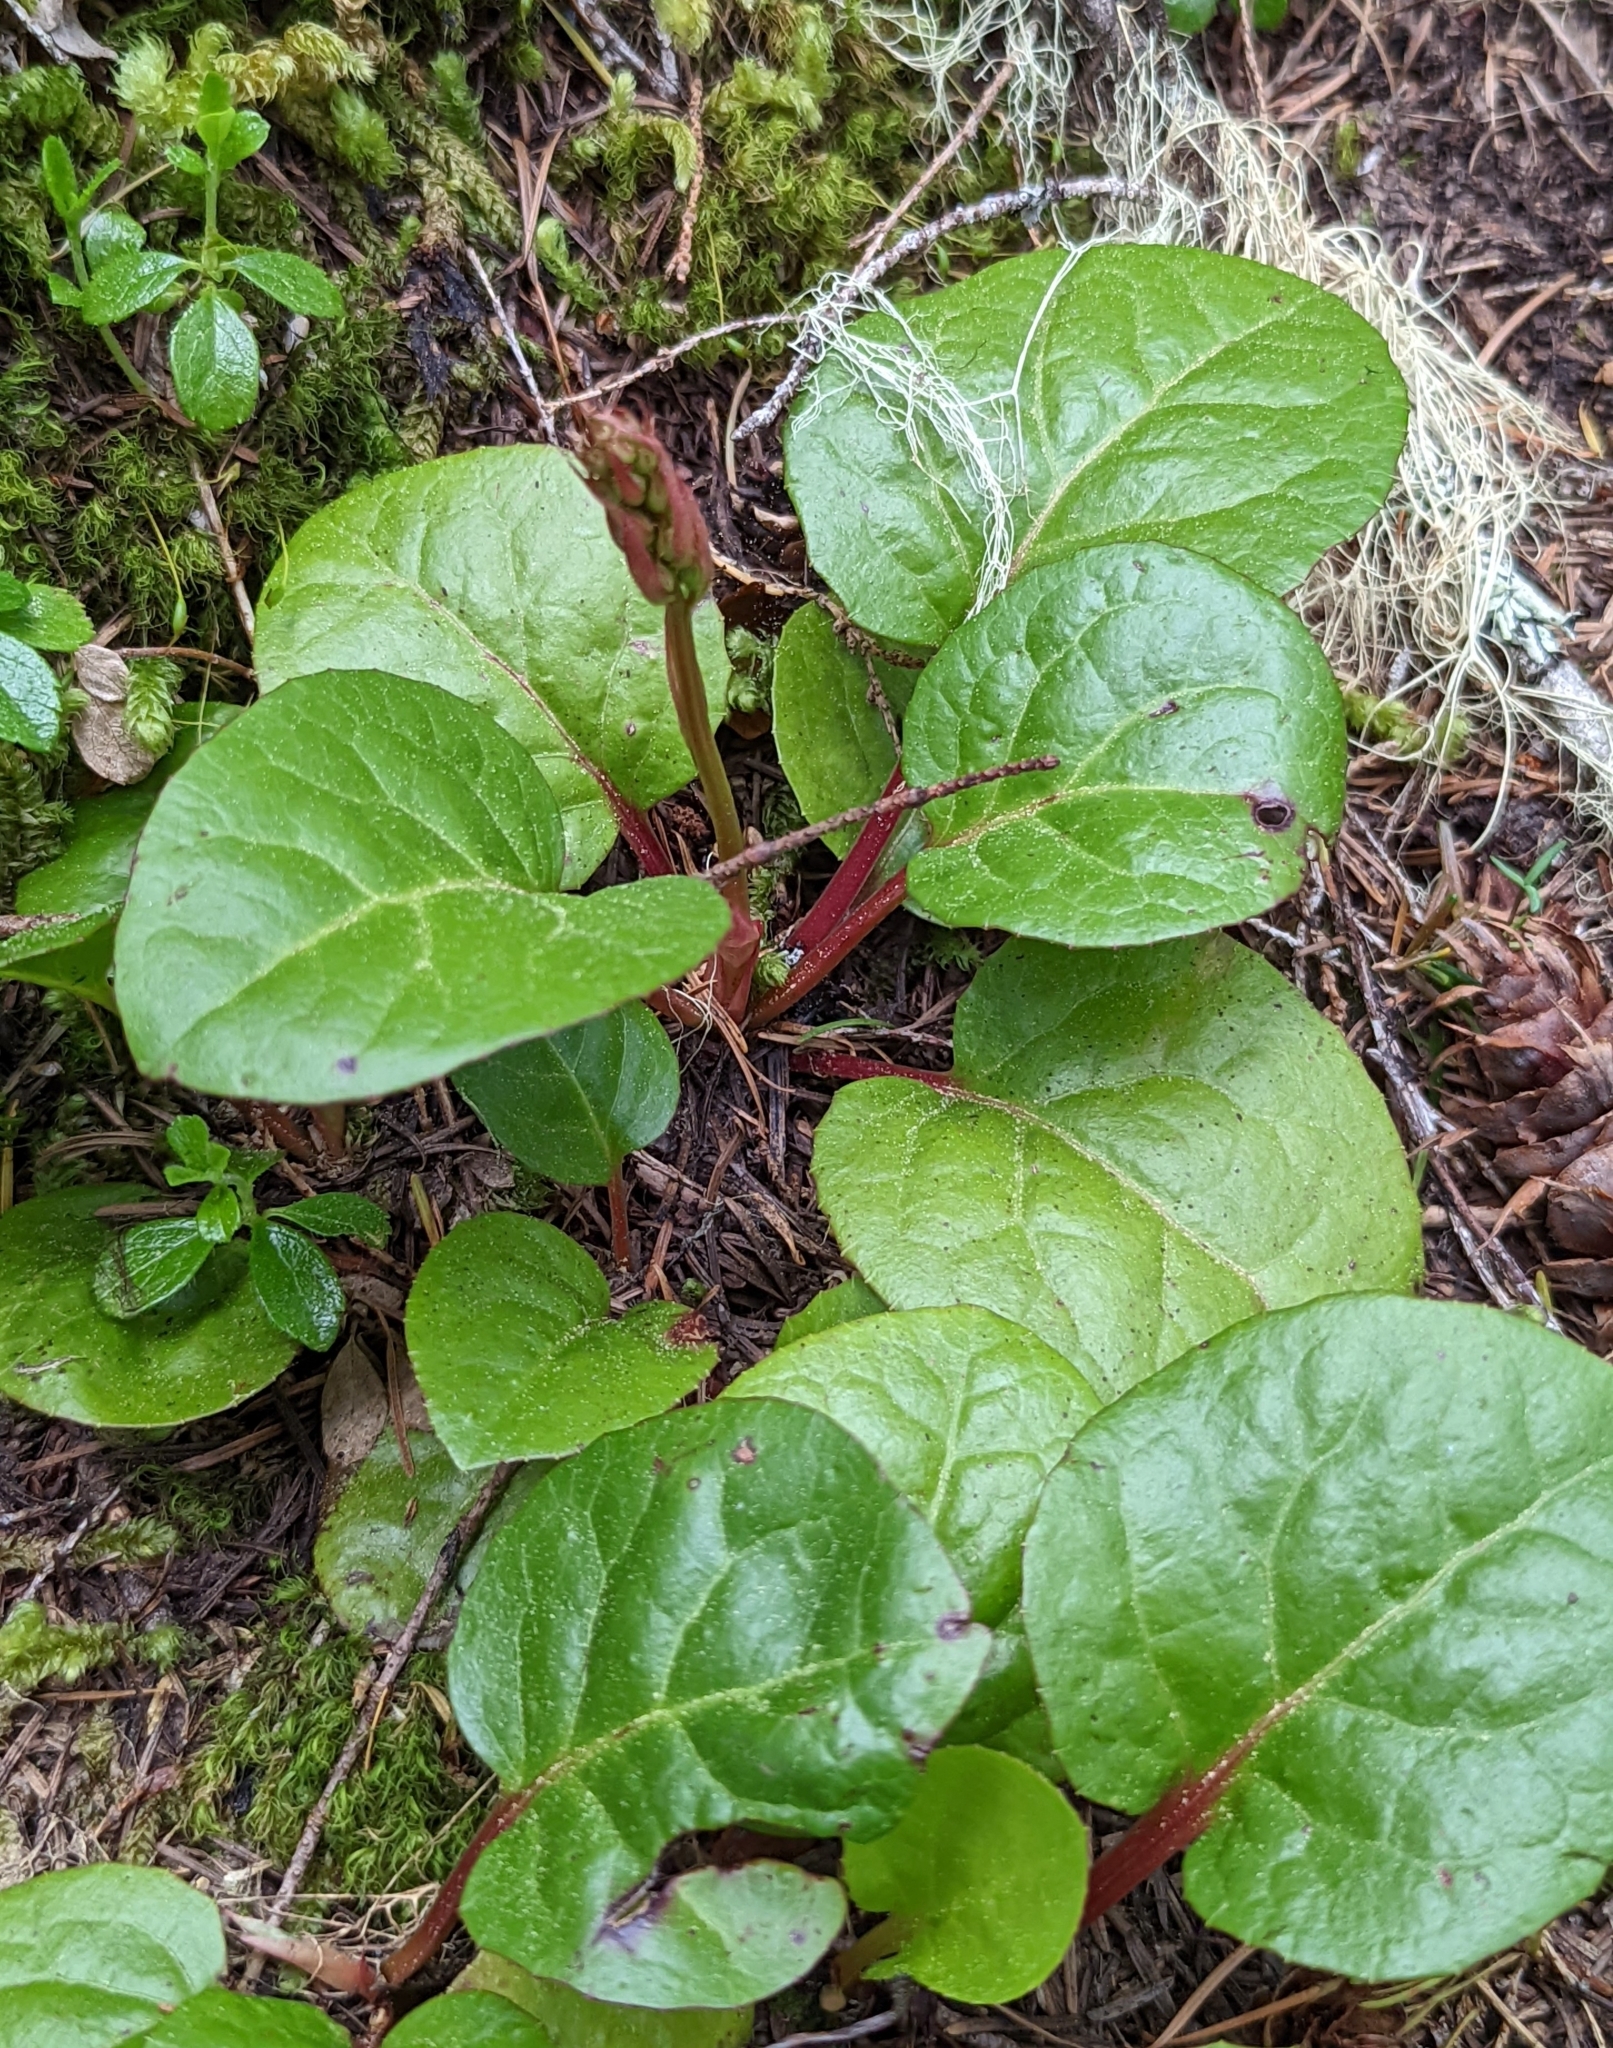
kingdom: Plantae
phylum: Tracheophyta
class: Magnoliopsida
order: Ericales
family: Ericaceae
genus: Pyrola
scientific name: Pyrola asarifolia
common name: Bog wintergreen
